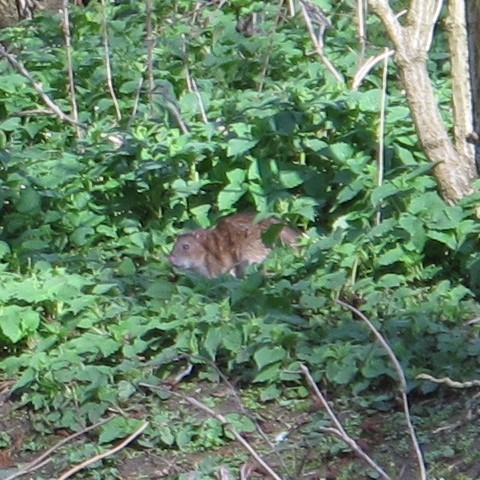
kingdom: Animalia
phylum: Chordata
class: Mammalia
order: Rodentia
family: Muridae
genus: Rattus
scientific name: Rattus norvegicus
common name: Brown rat
